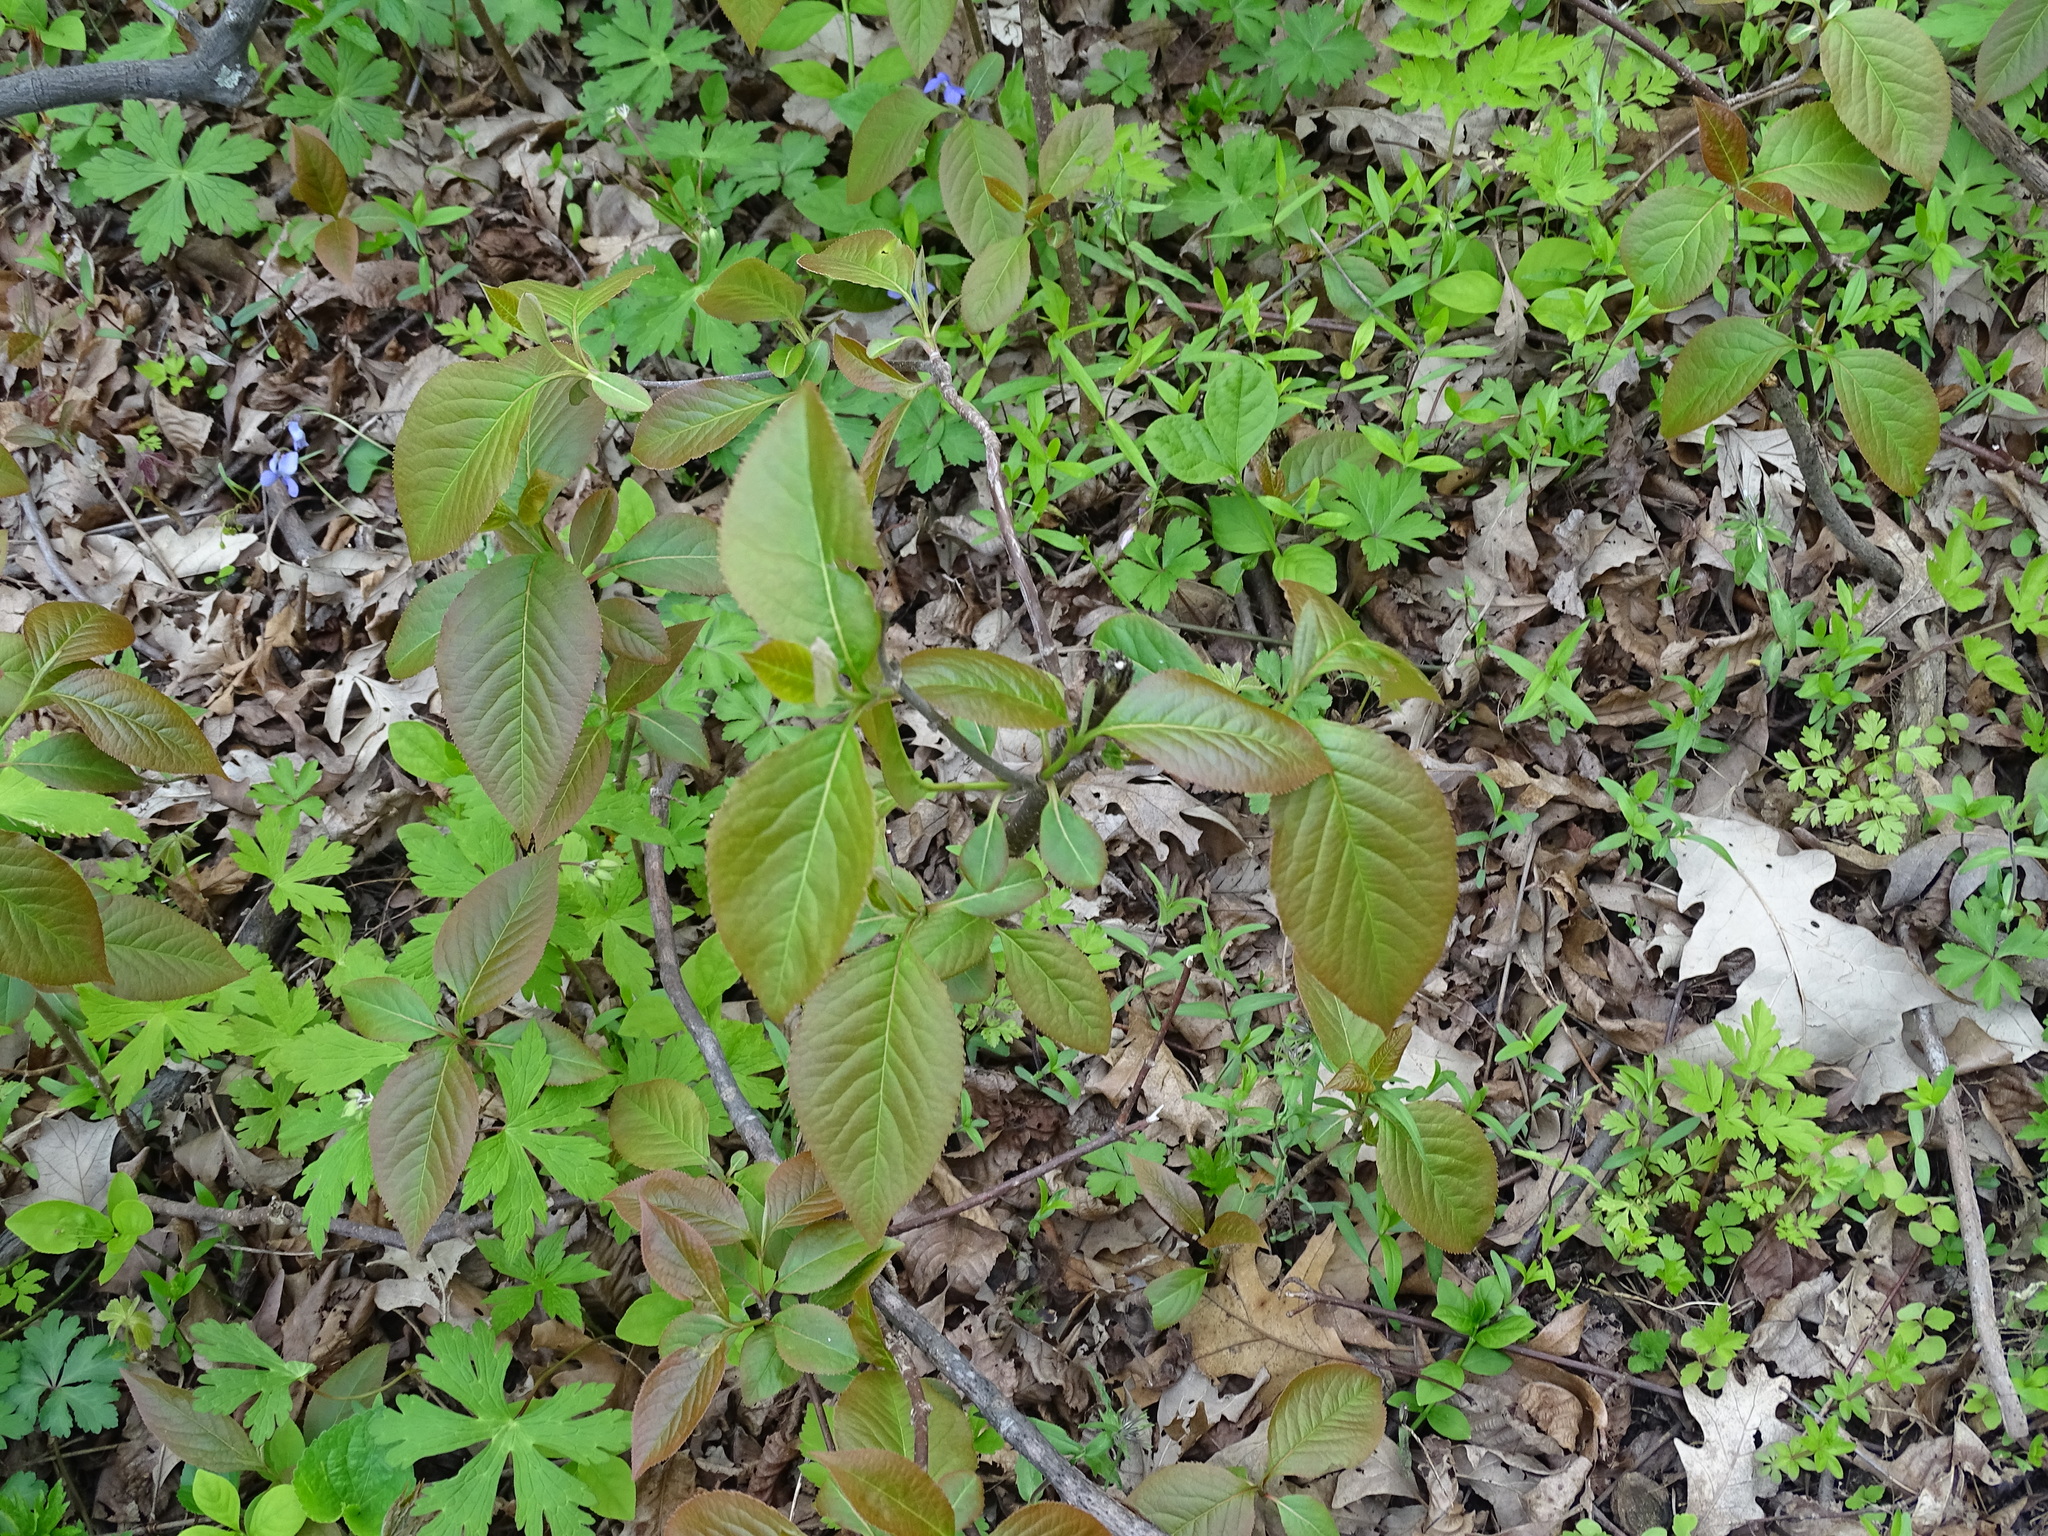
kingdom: Plantae
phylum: Tracheophyta
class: Magnoliopsida
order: Dipsacales
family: Viburnaceae
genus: Viburnum
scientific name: Viburnum lentago
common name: Black haw
